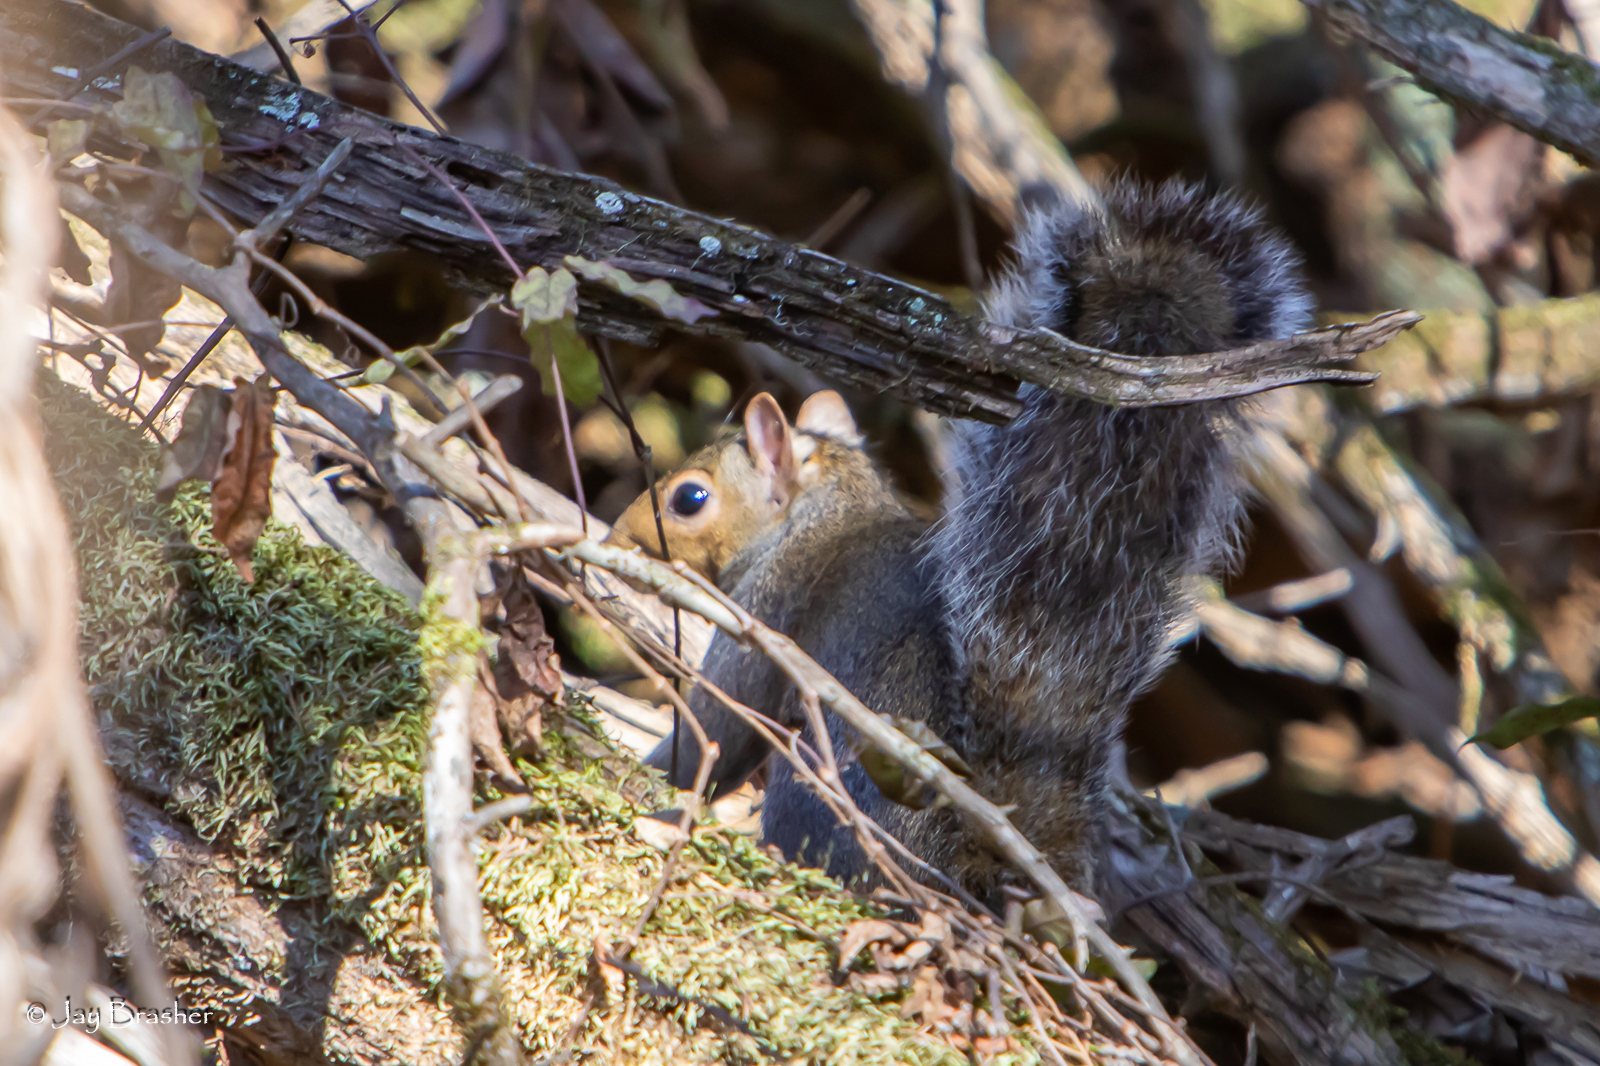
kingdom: Animalia
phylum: Chordata
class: Mammalia
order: Rodentia
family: Sciuridae
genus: Sciurus
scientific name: Sciurus carolinensis
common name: Eastern gray squirrel
